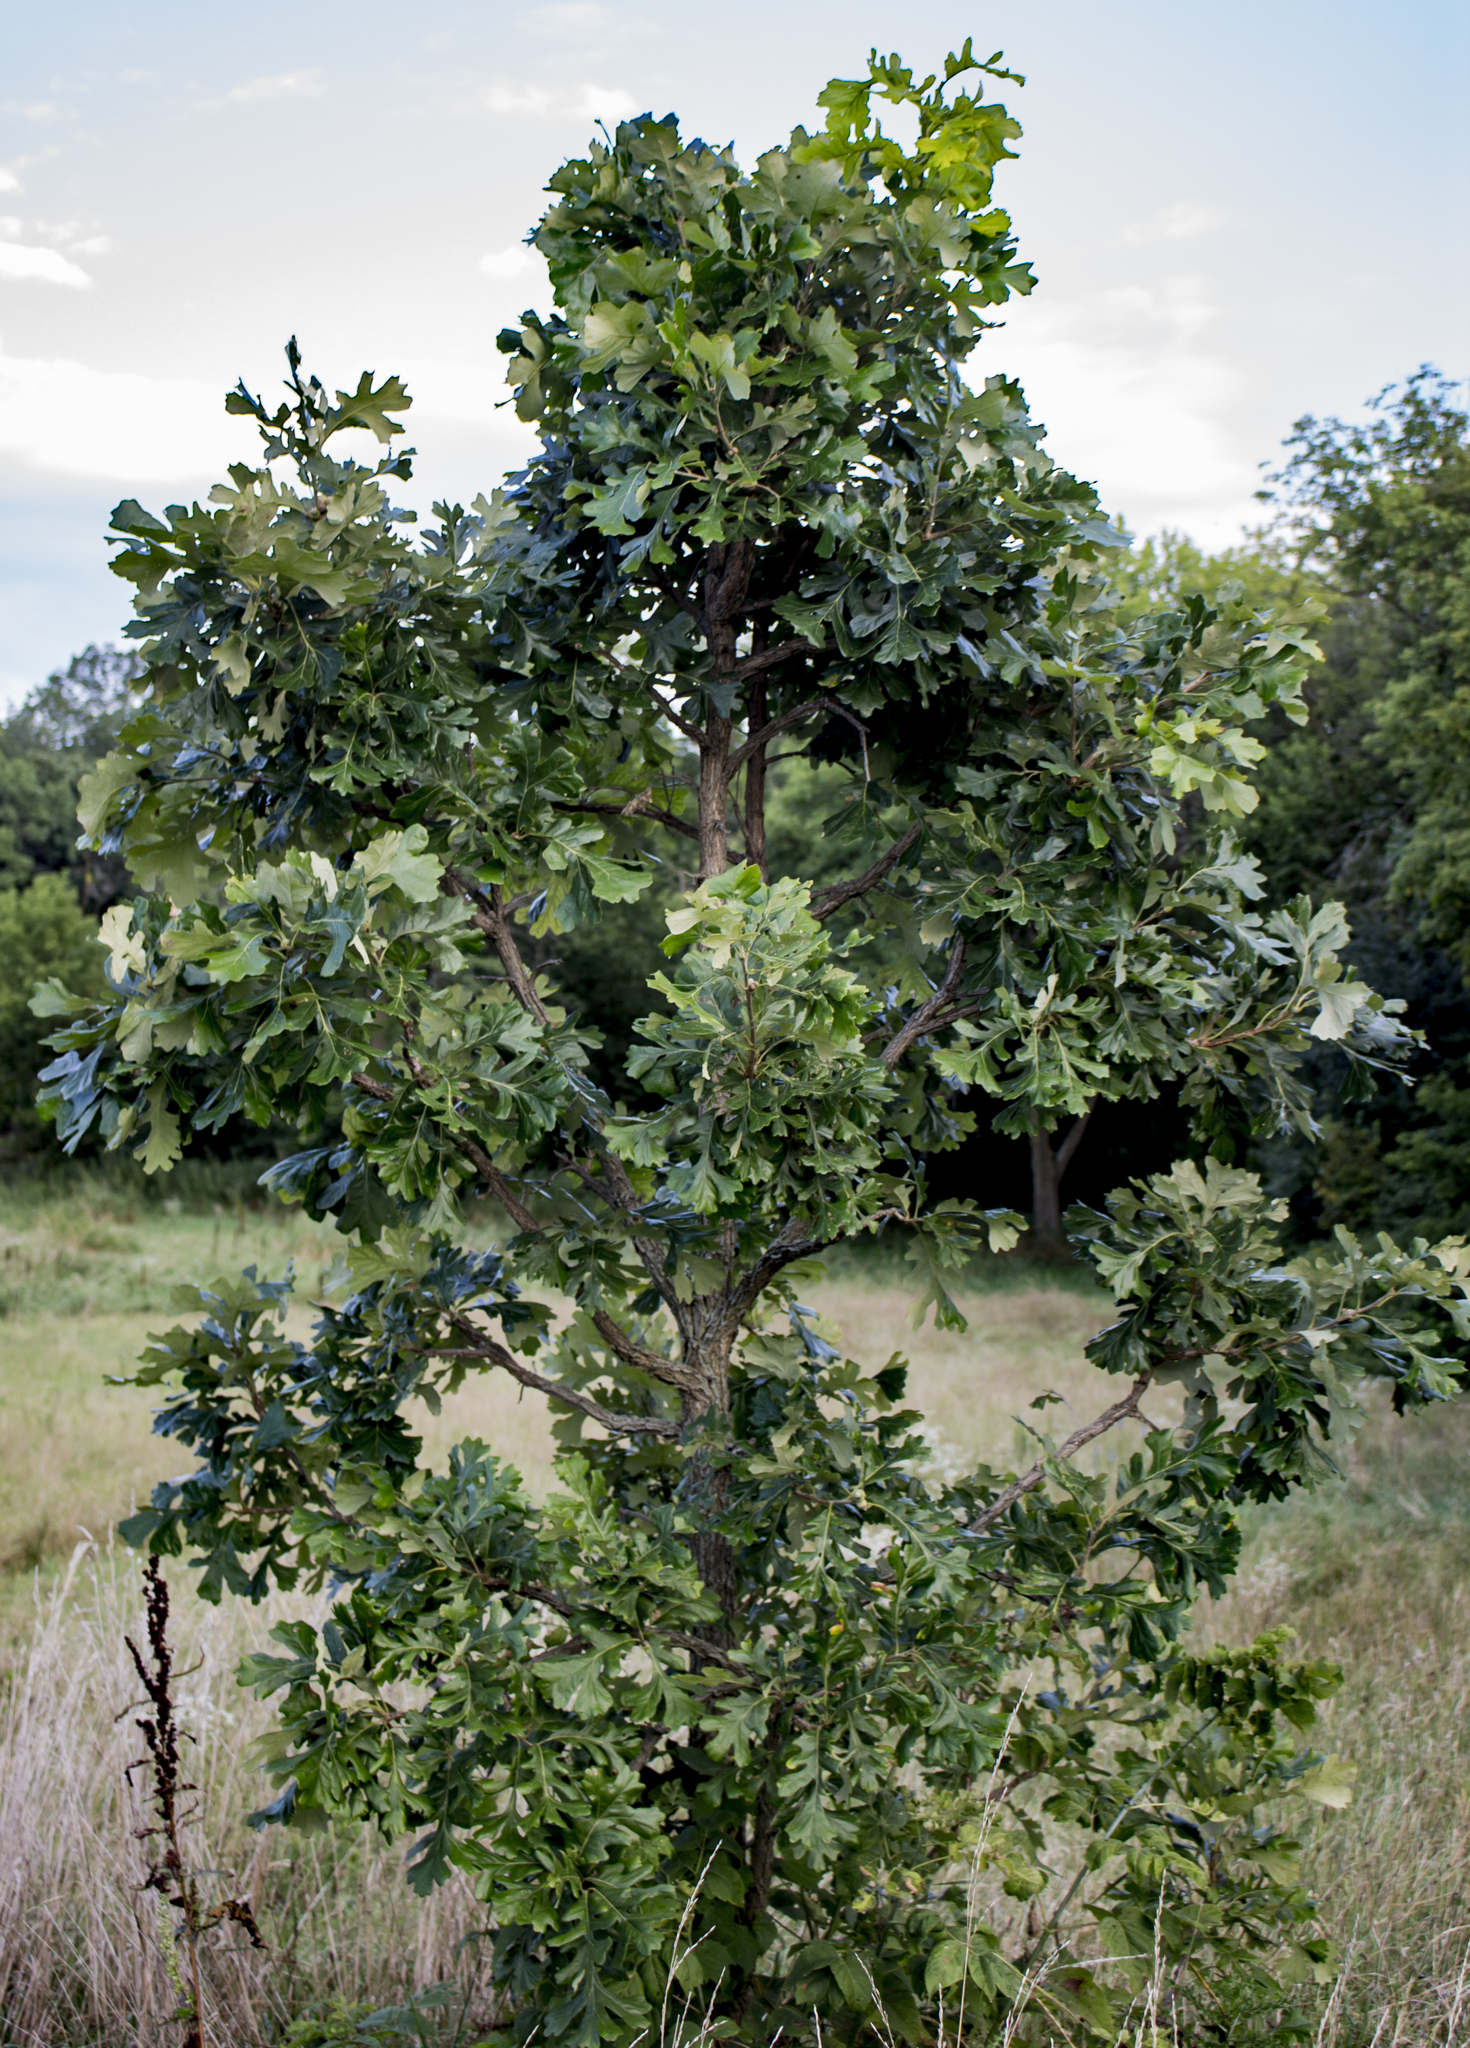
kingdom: Plantae
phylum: Tracheophyta
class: Magnoliopsida
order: Fagales
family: Fagaceae
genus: Quercus
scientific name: Quercus macrocarpa
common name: Bur oak
